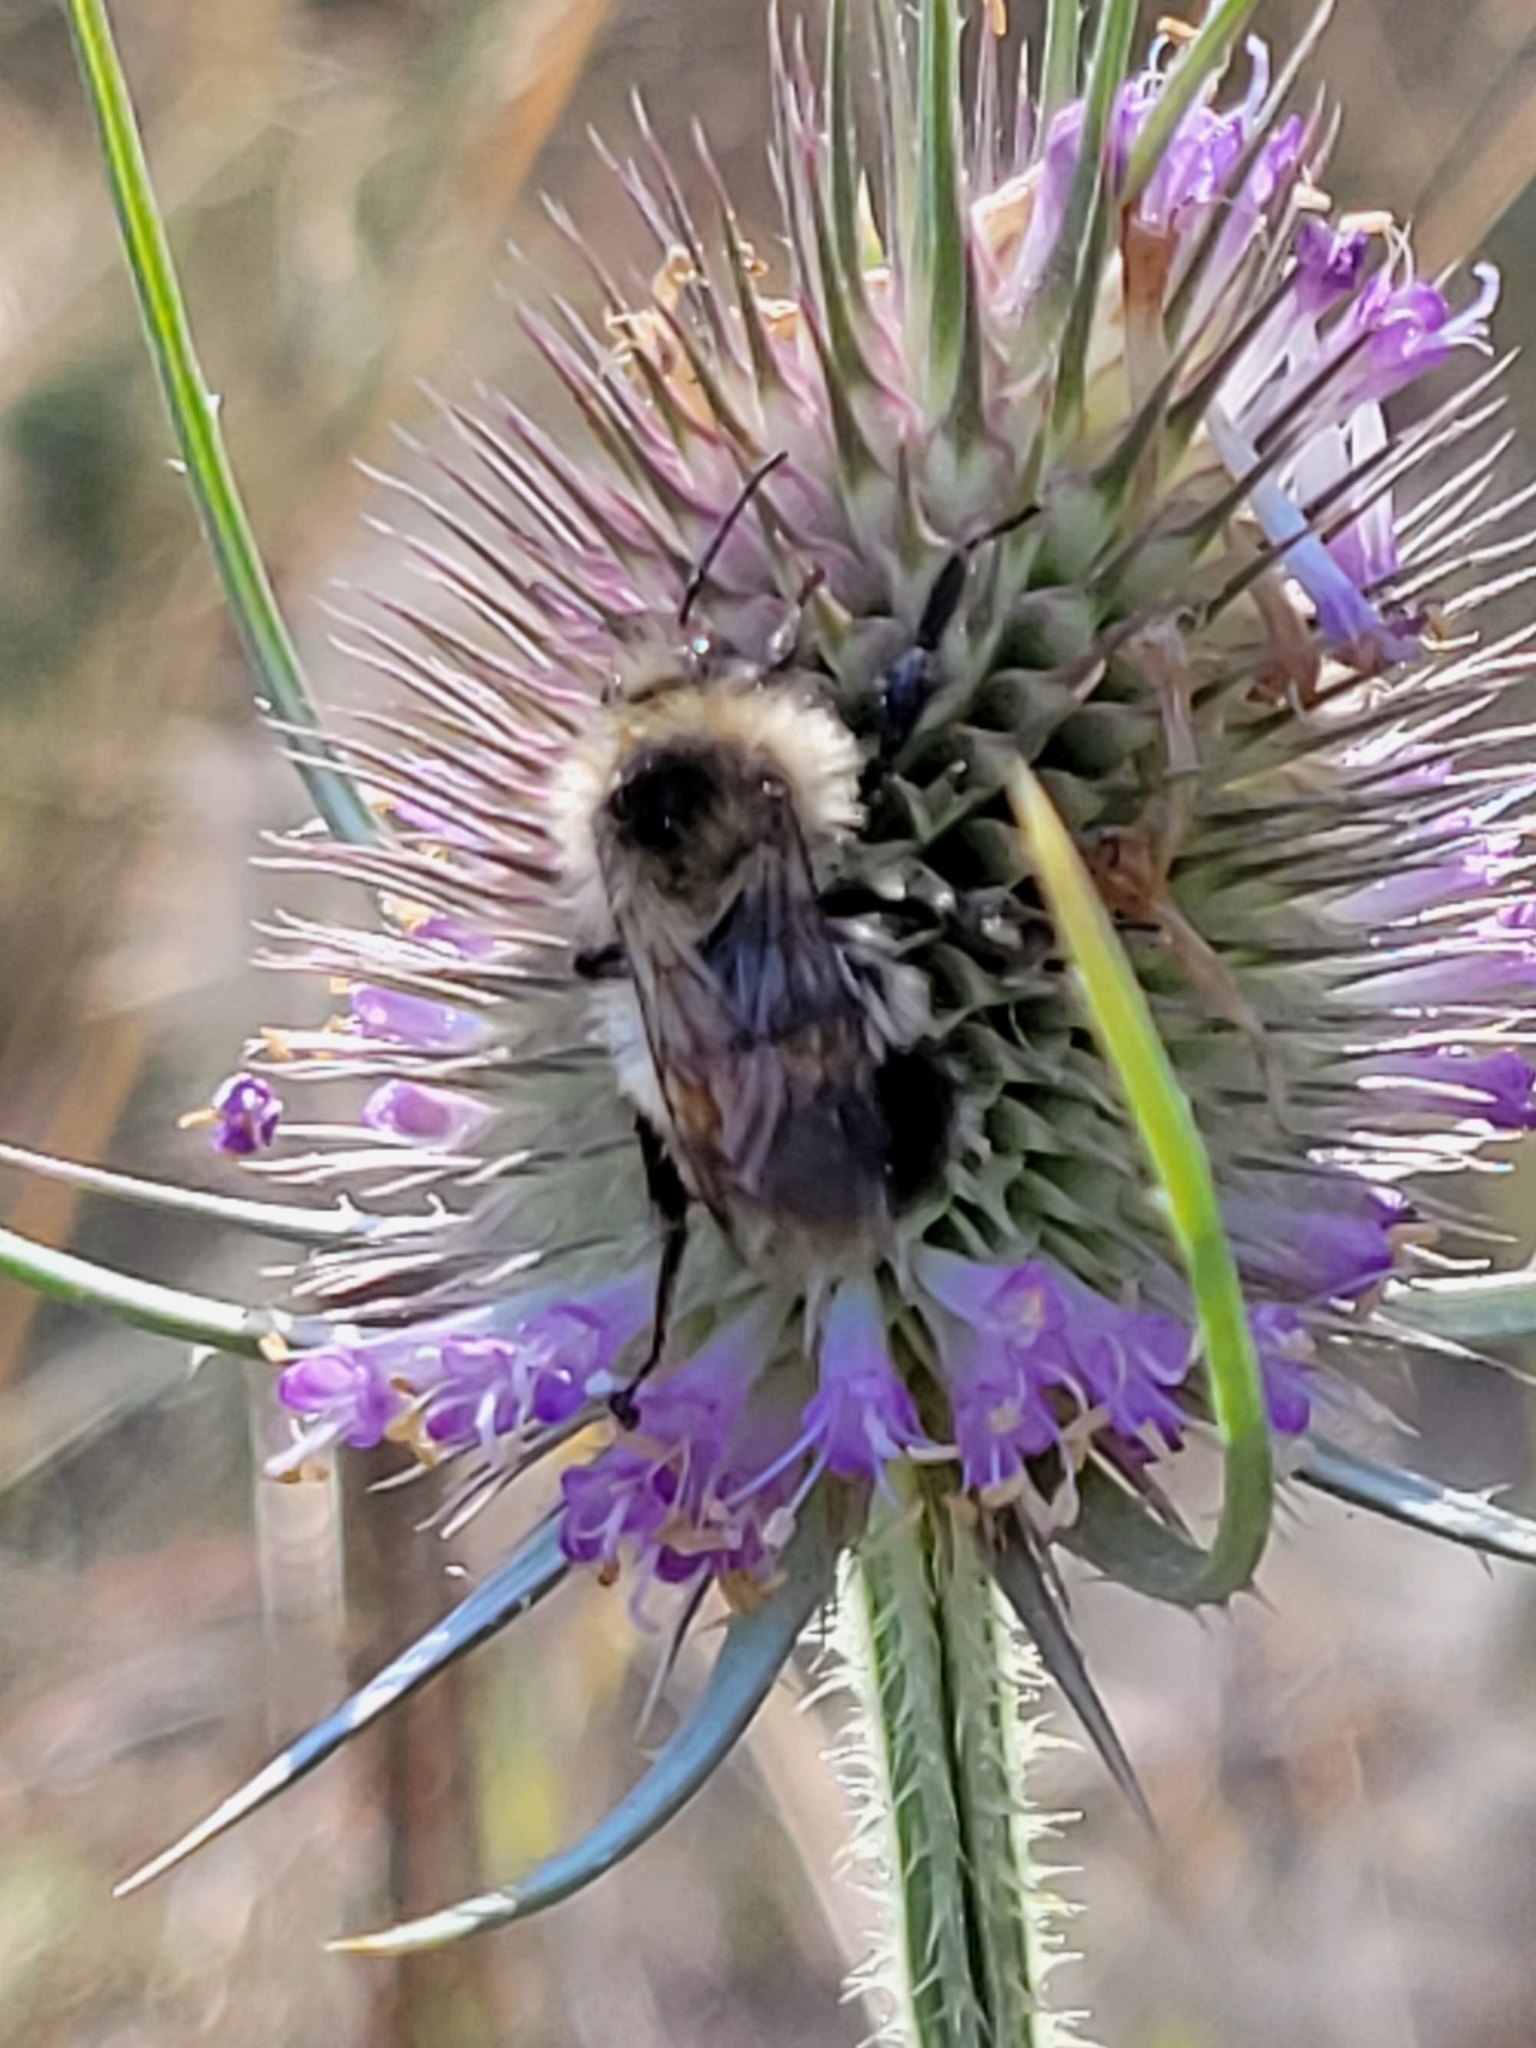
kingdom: Animalia
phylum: Arthropoda
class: Insecta
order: Hymenoptera
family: Apidae
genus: Bombus
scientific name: Bombus vagans
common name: Half-black bumble bee
